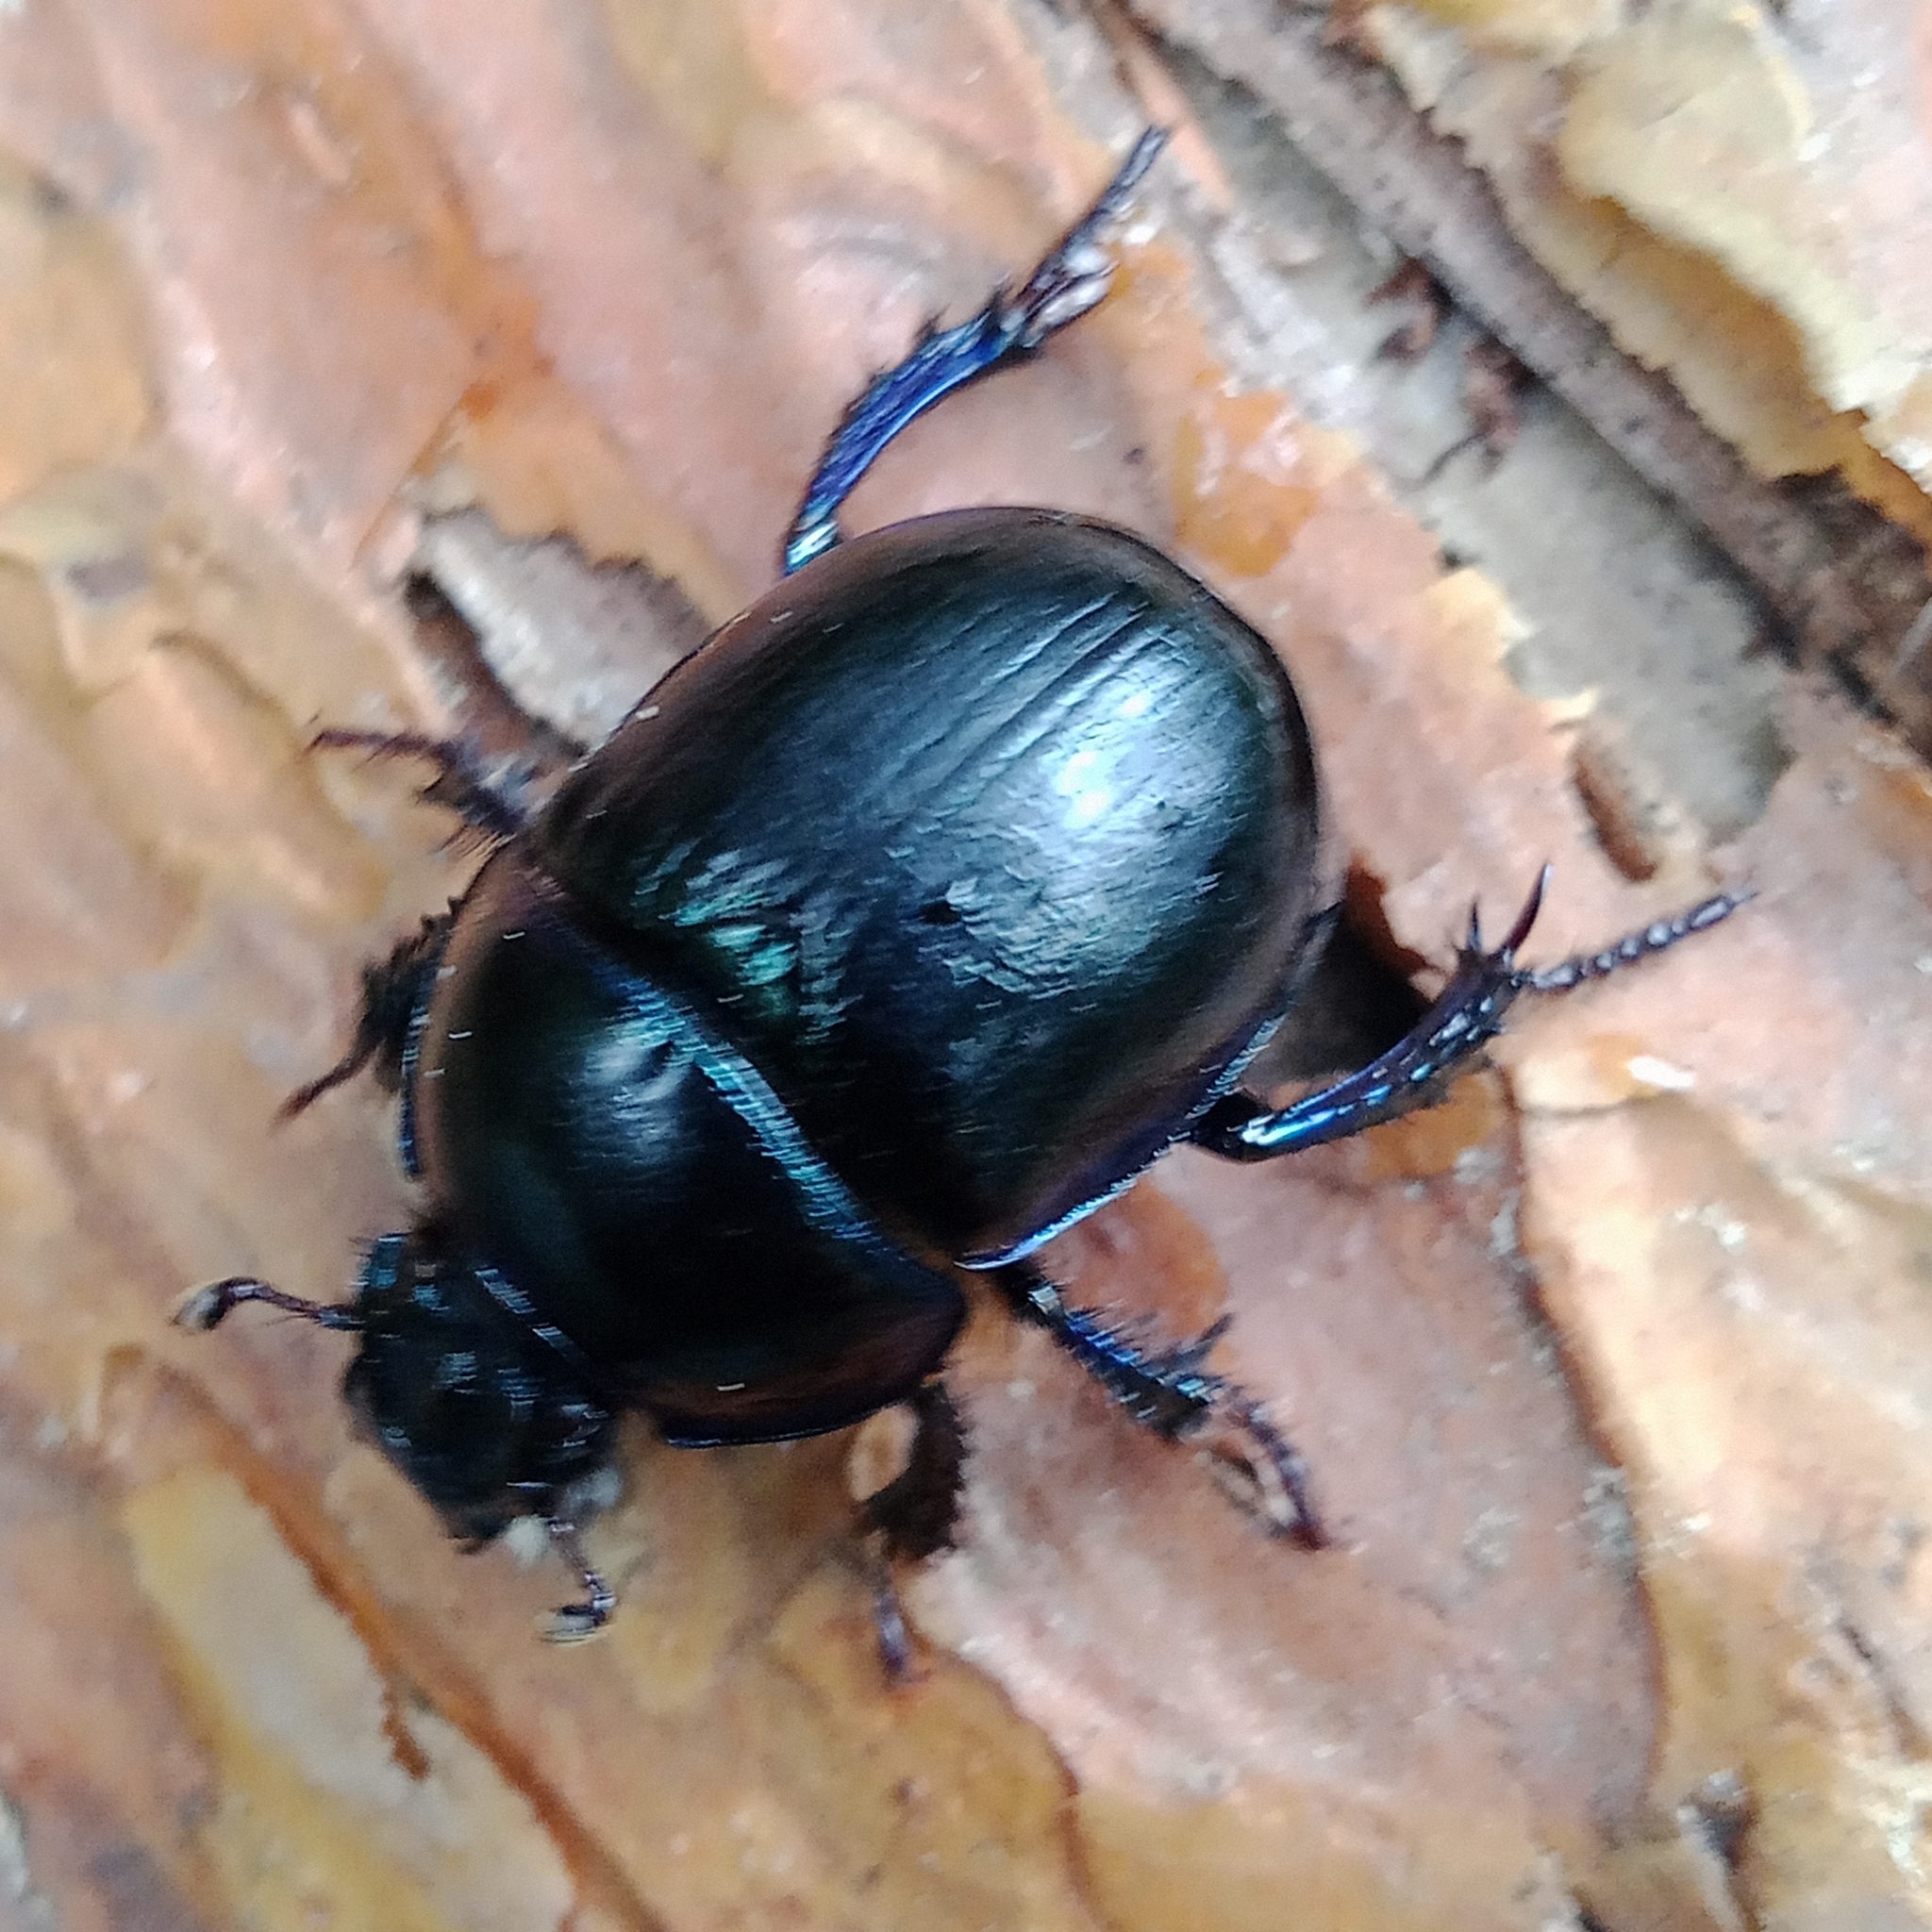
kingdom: Animalia
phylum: Arthropoda
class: Insecta
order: Coleoptera
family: Geotrupidae
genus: Anoplotrupes
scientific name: Anoplotrupes stercorosus
